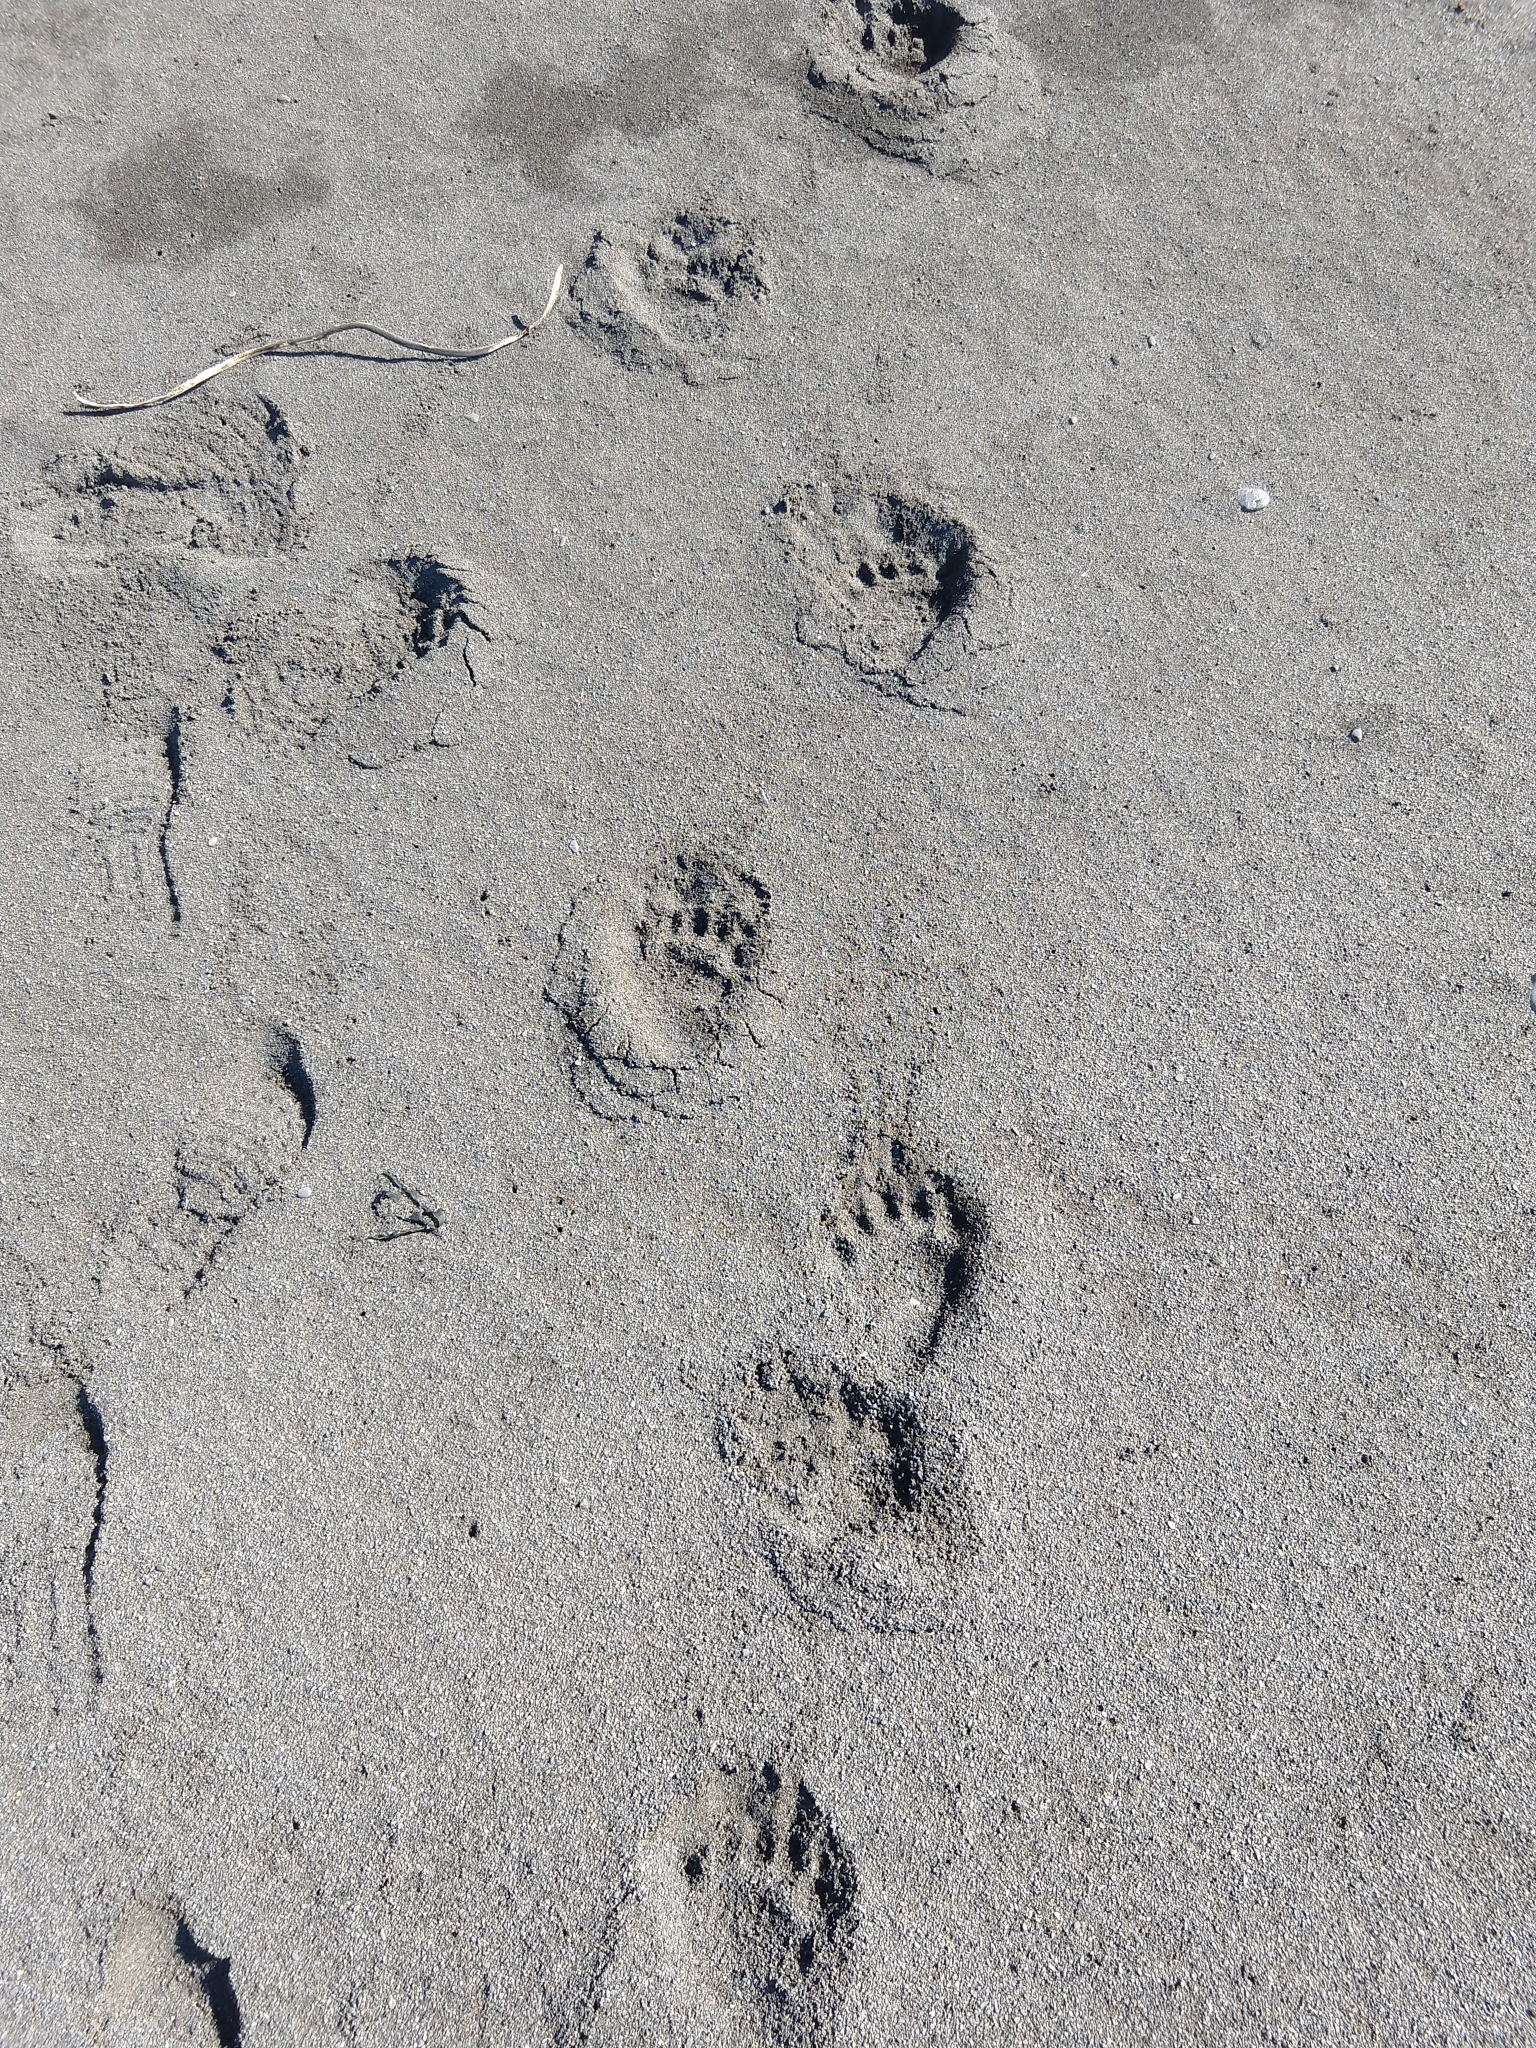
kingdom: Animalia
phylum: Chordata
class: Mammalia
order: Carnivora
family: Ursidae
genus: Ursus
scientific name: Ursus americanus
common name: American black bear
